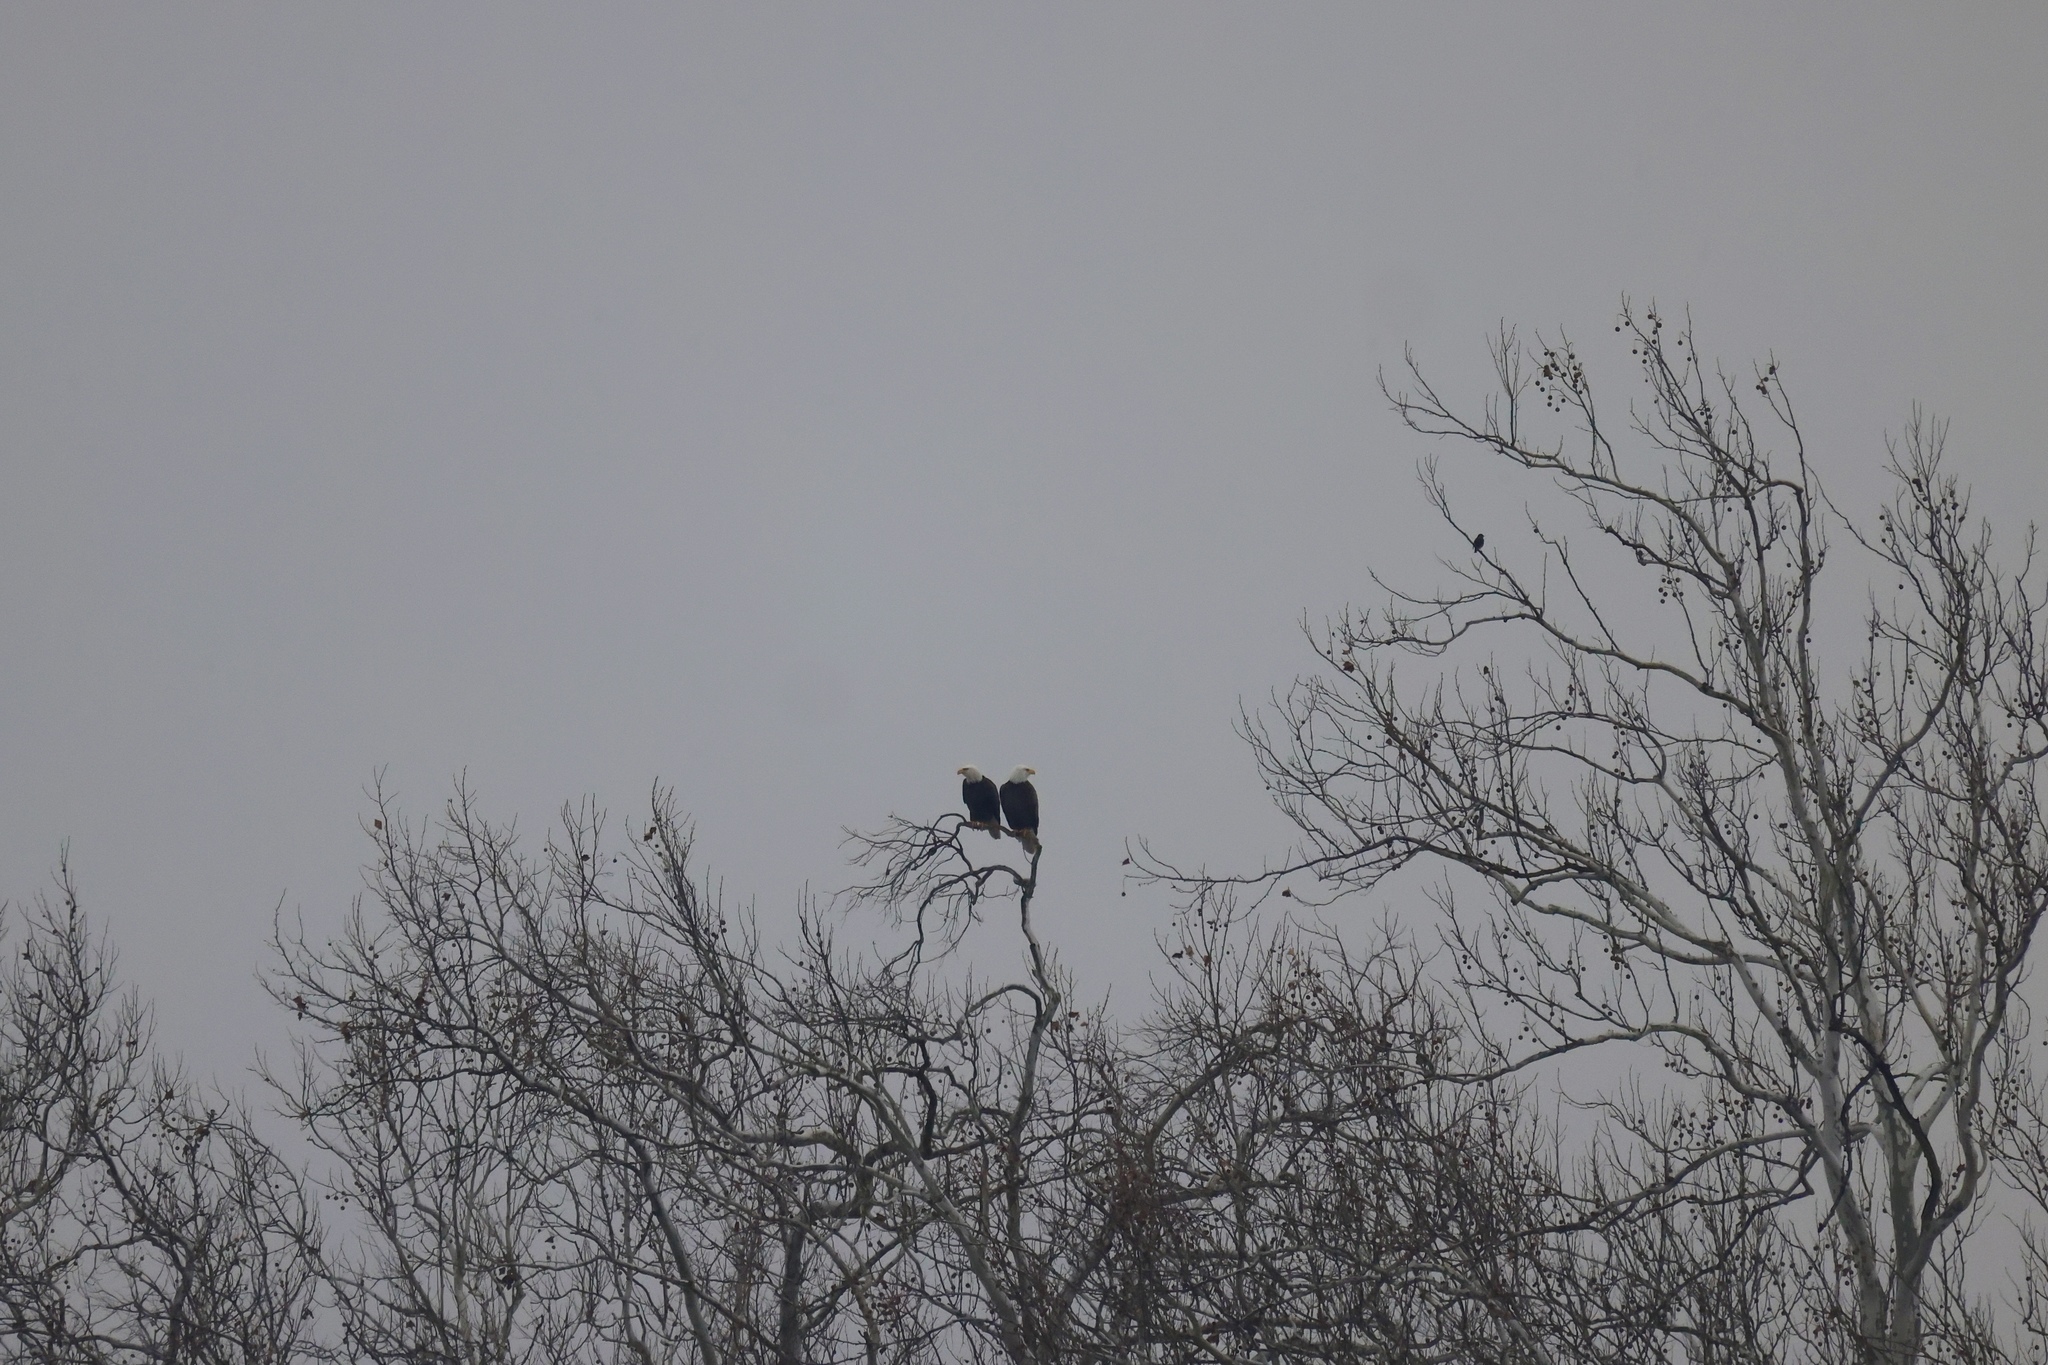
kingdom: Animalia
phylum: Chordata
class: Aves
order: Accipitriformes
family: Accipitridae
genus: Haliaeetus
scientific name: Haliaeetus leucocephalus
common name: Bald eagle
